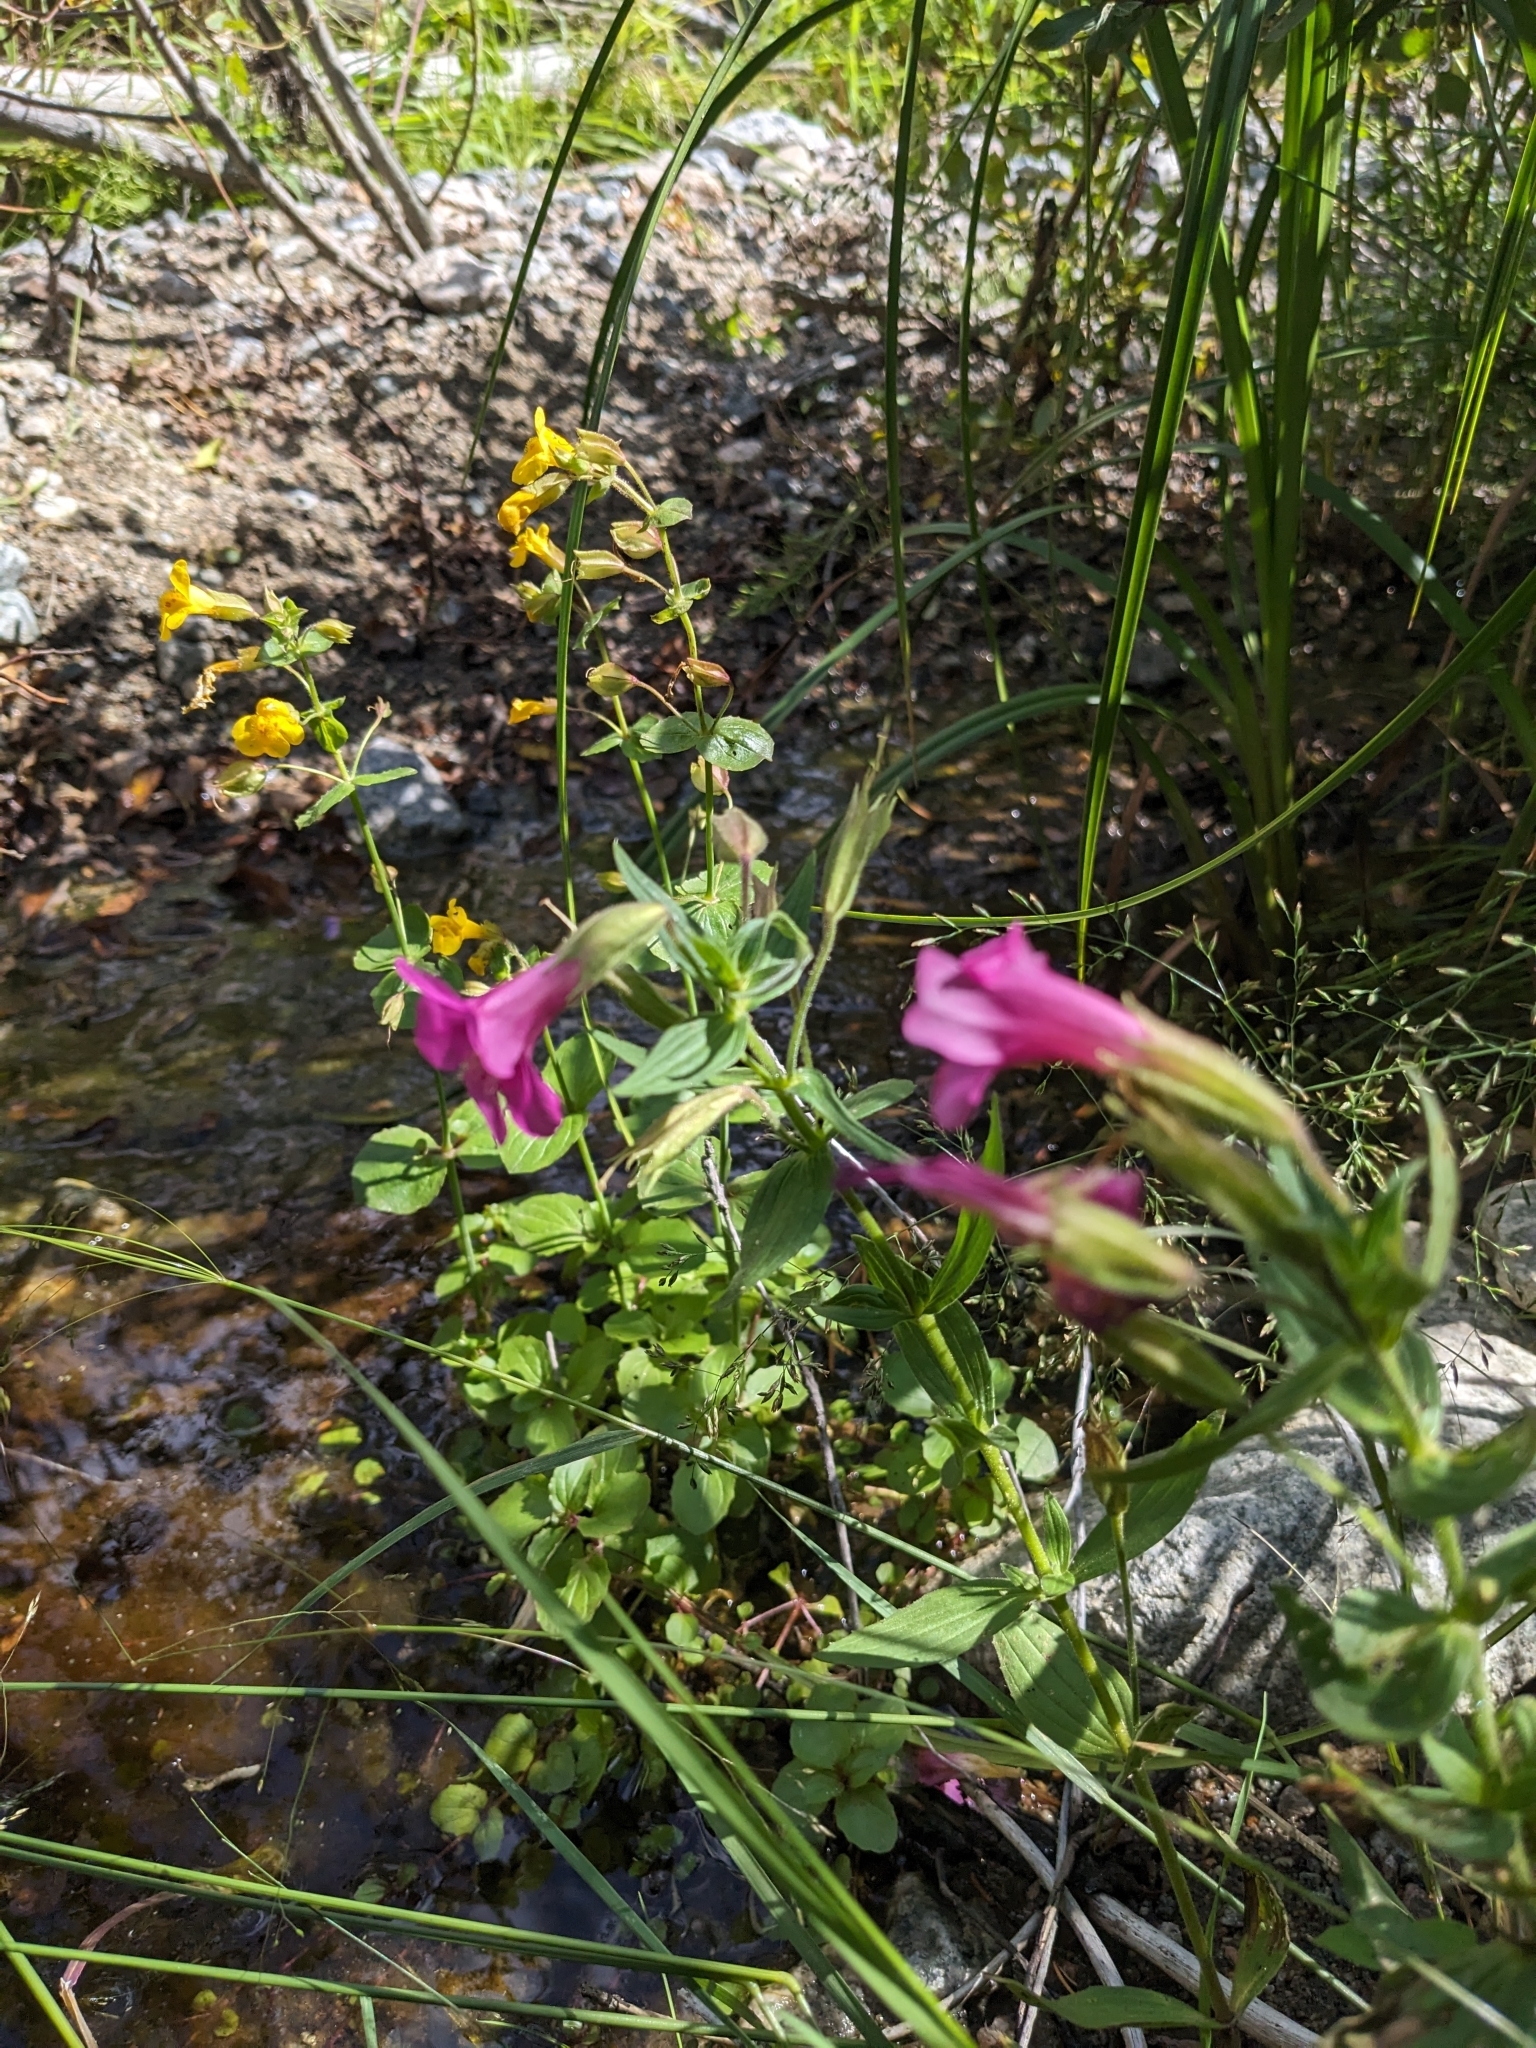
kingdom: Plantae
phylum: Tracheophyta
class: Magnoliopsida
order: Lamiales
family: Phrymaceae
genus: Erythranthe
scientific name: Erythranthe guttata
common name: Monkeyflower
